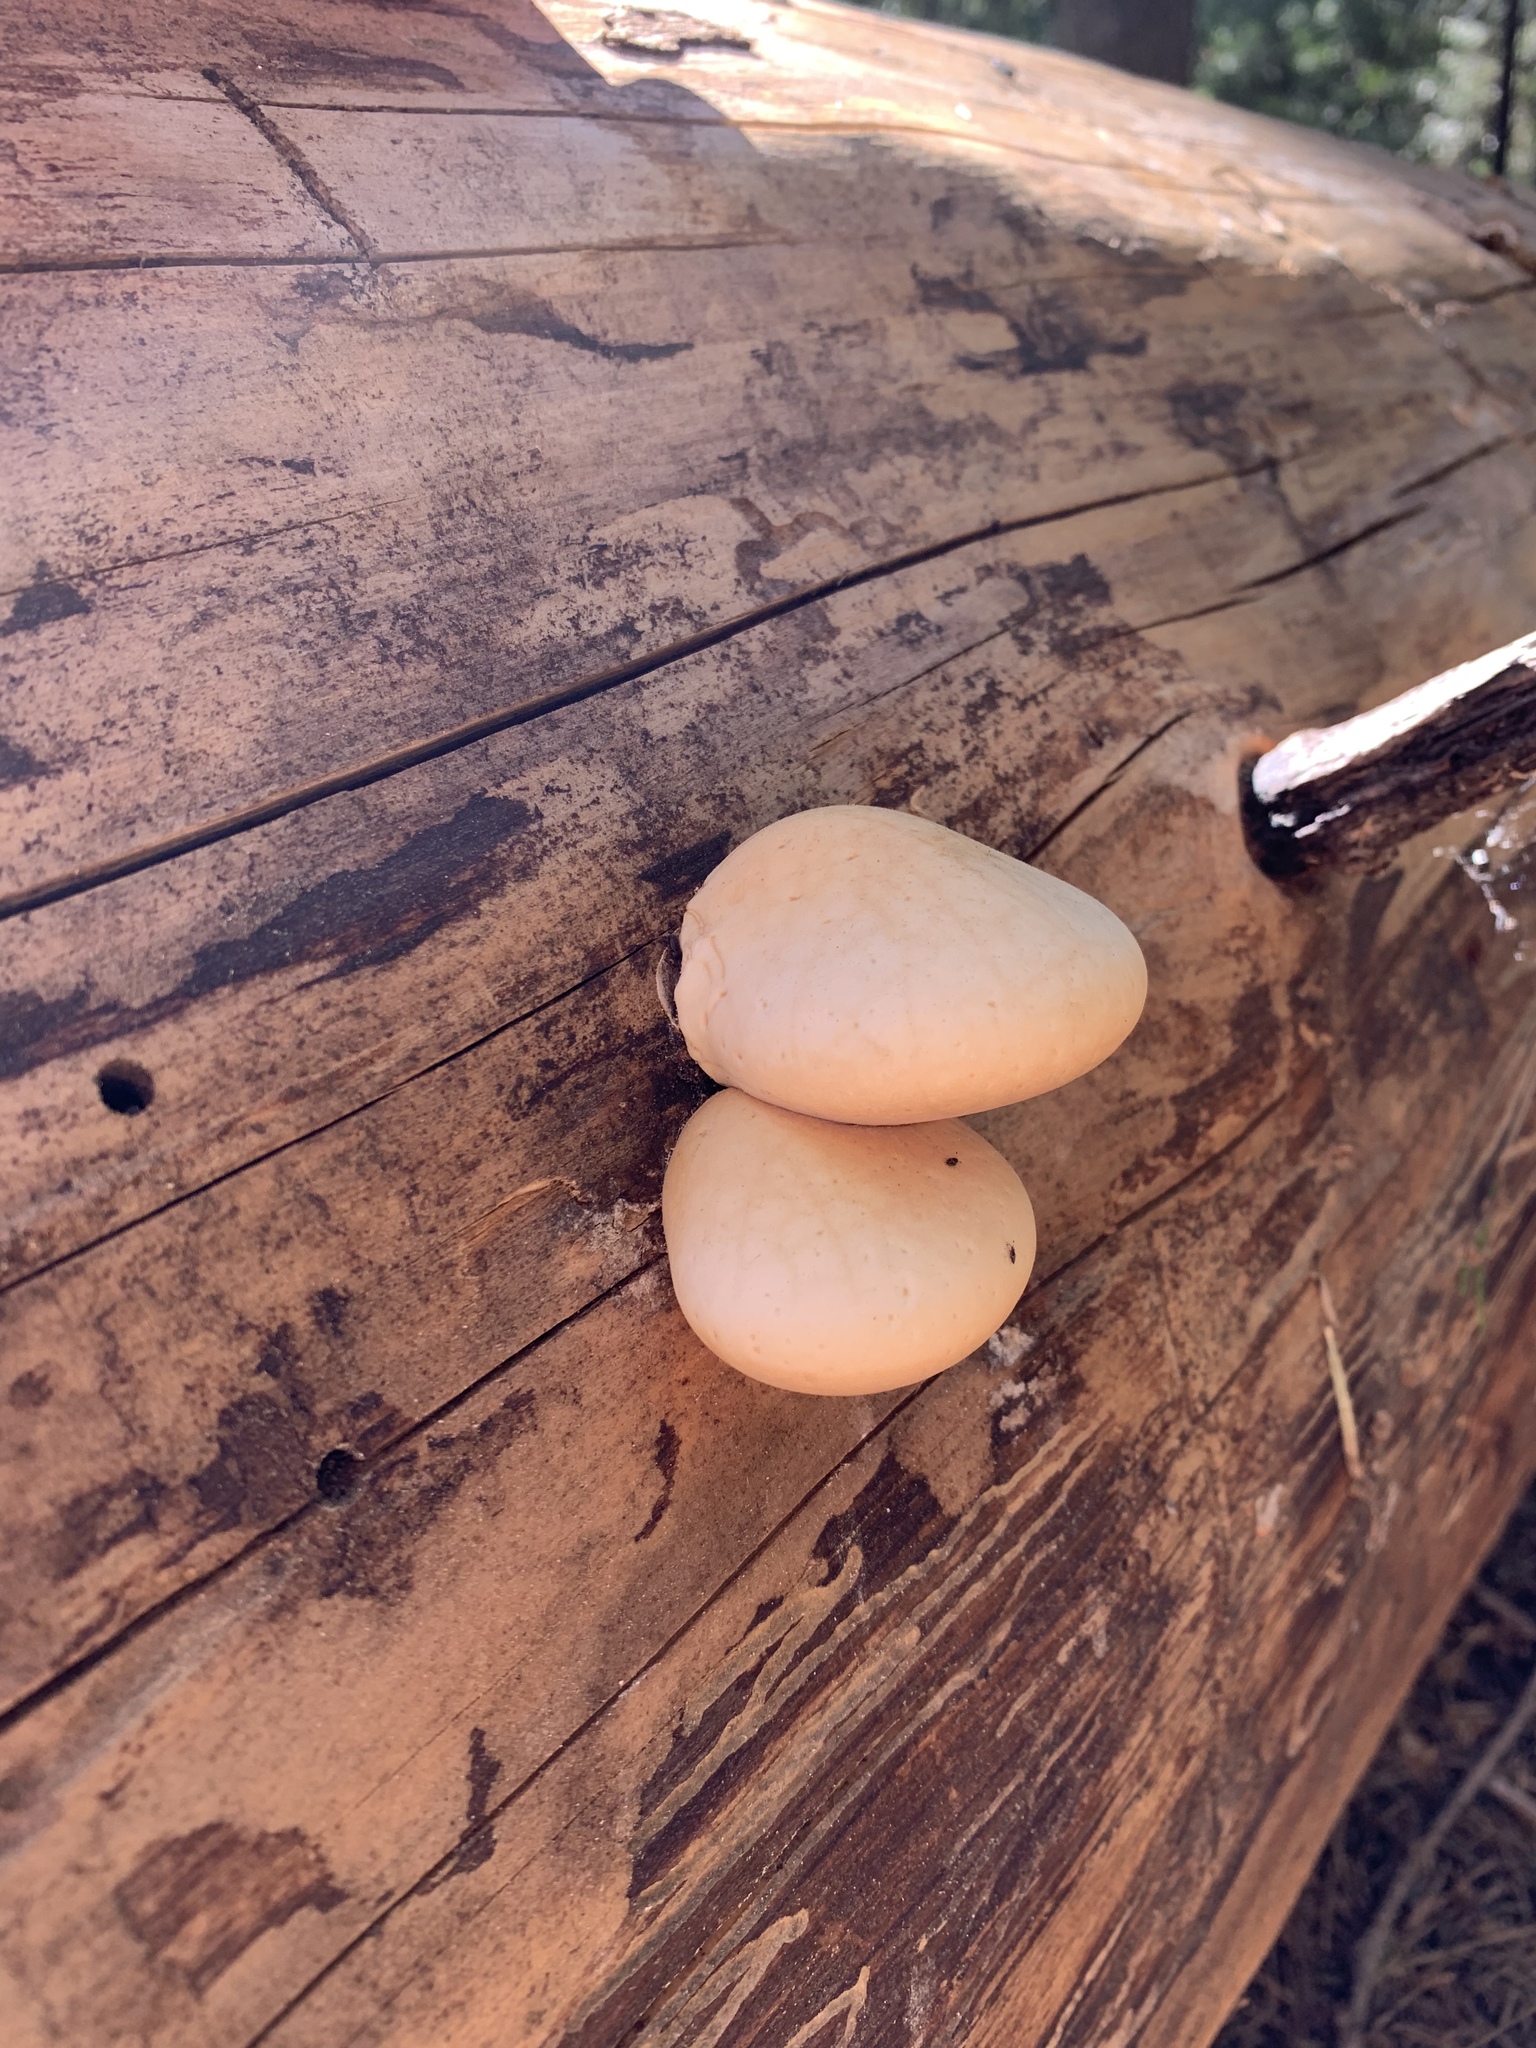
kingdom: Fungi
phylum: Basidiomycota
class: Agaricomycetes
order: Polyporales
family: Polyporaceae
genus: Cryptoporus
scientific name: Cryptoporus volvatus
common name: Veiled polypore
